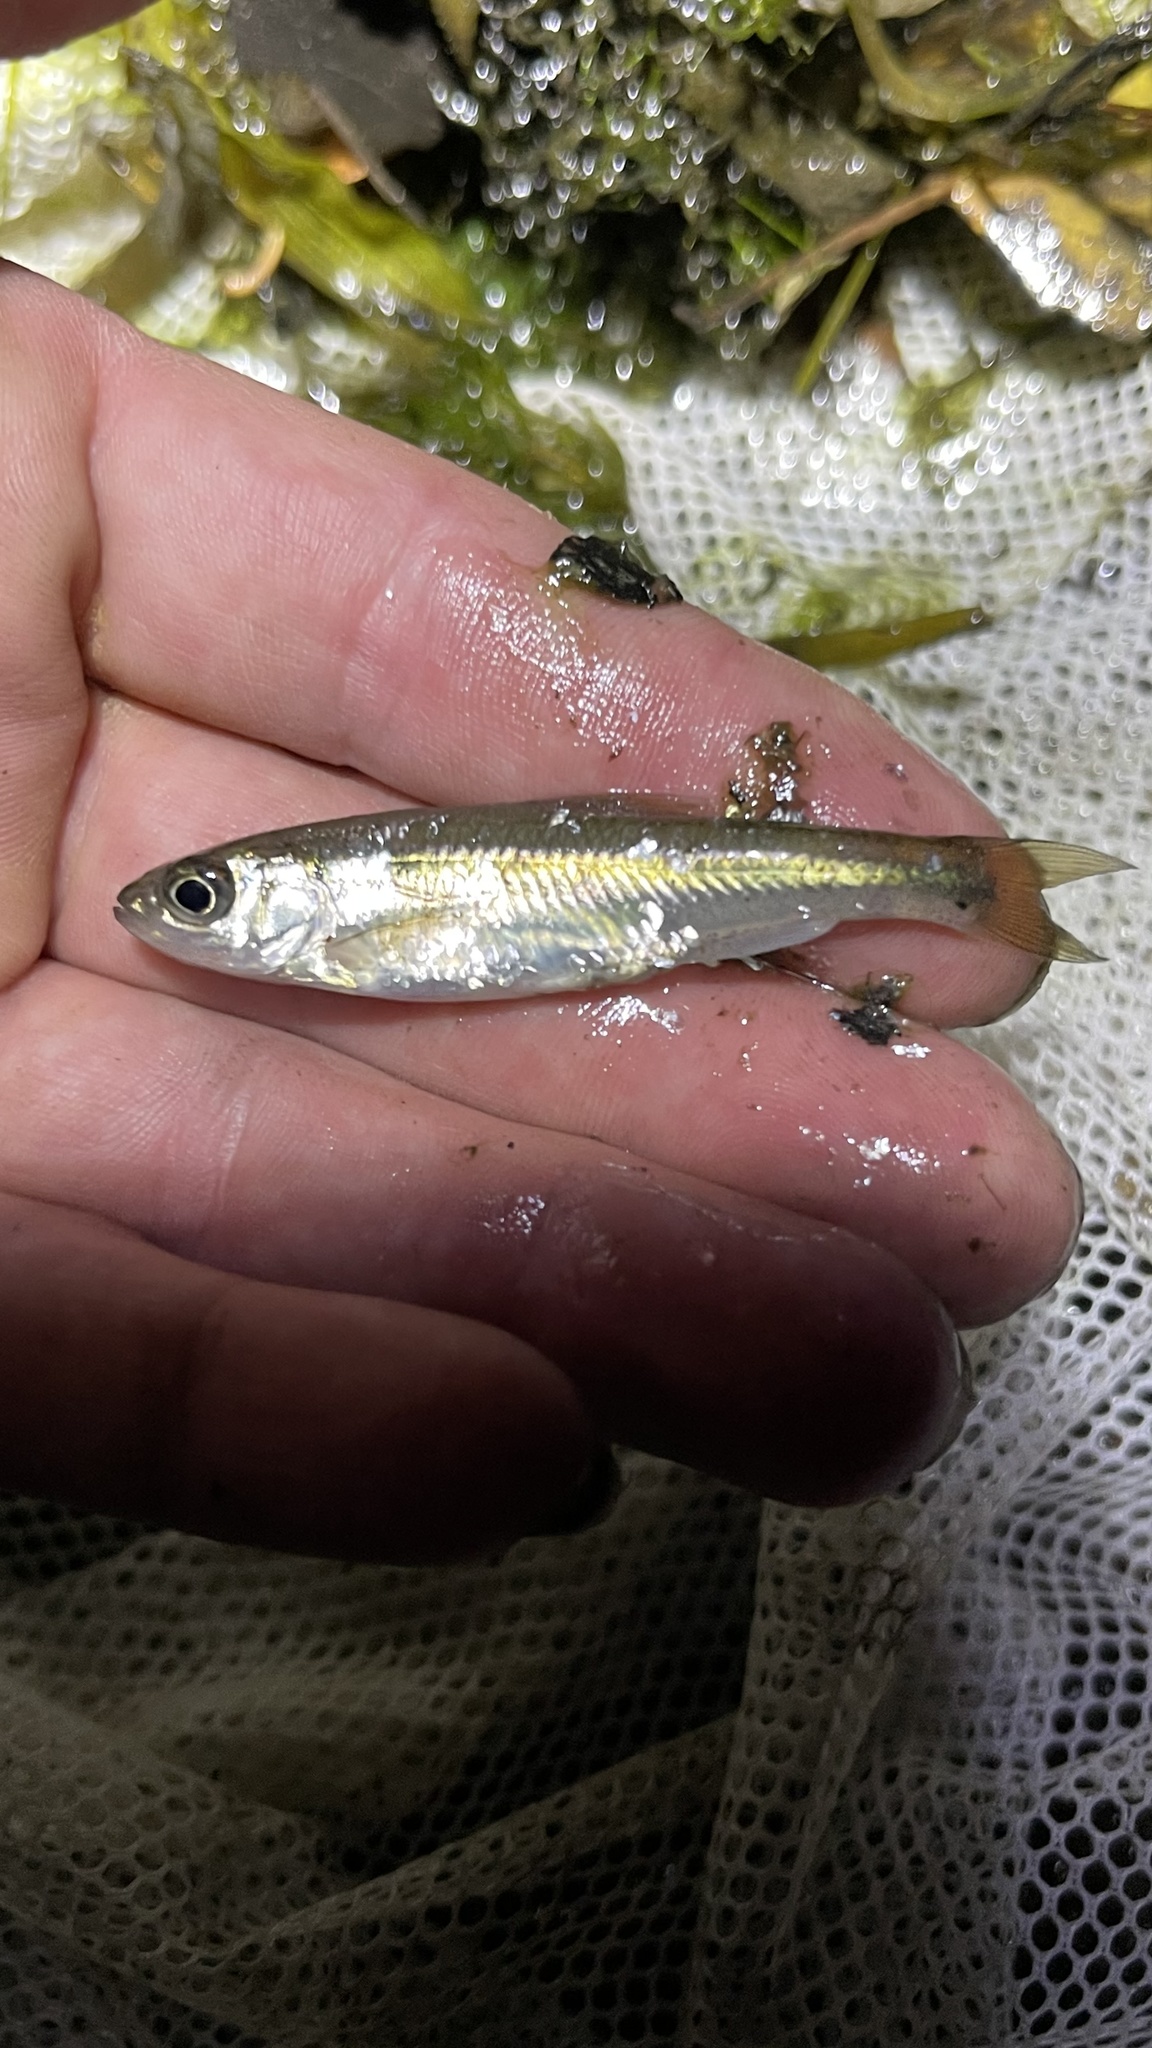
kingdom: Animalia
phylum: Chordata
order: Cypriniformes
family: Cyprinidae
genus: Luxilus
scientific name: Luxilus cornutus
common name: Common shiner
